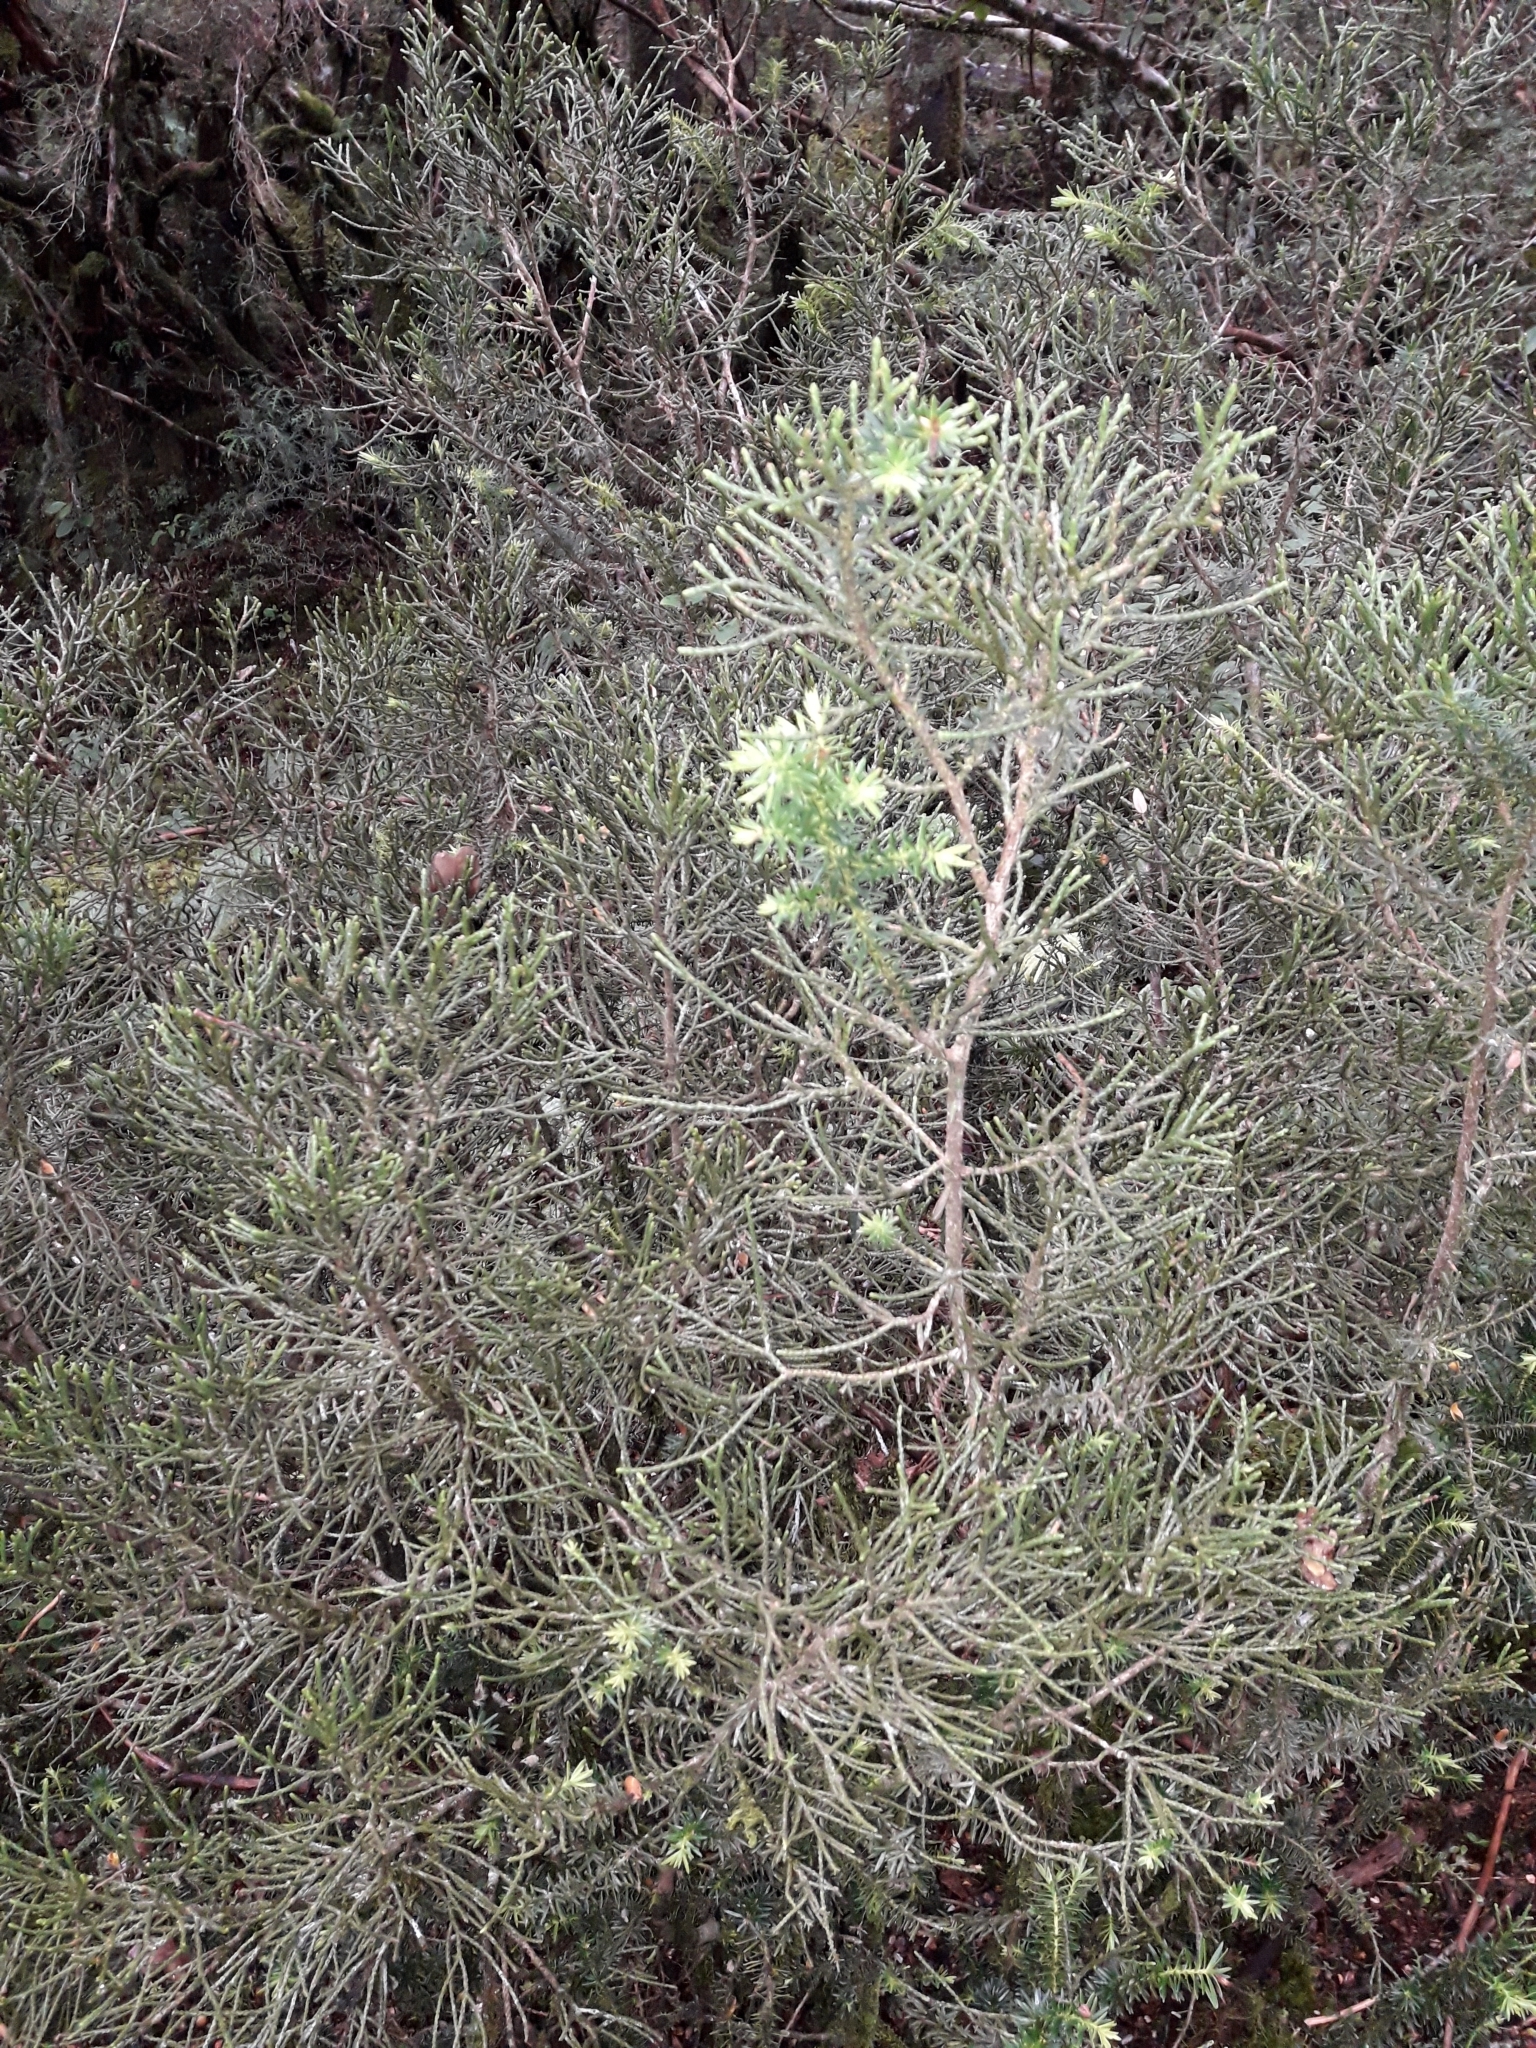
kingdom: Plantae
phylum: Tracheophyta
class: Pinopsida
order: Pinales
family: Podocarpaceae
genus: Halocarpus
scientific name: Halocarpus biformis
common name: Alpine tarwood
